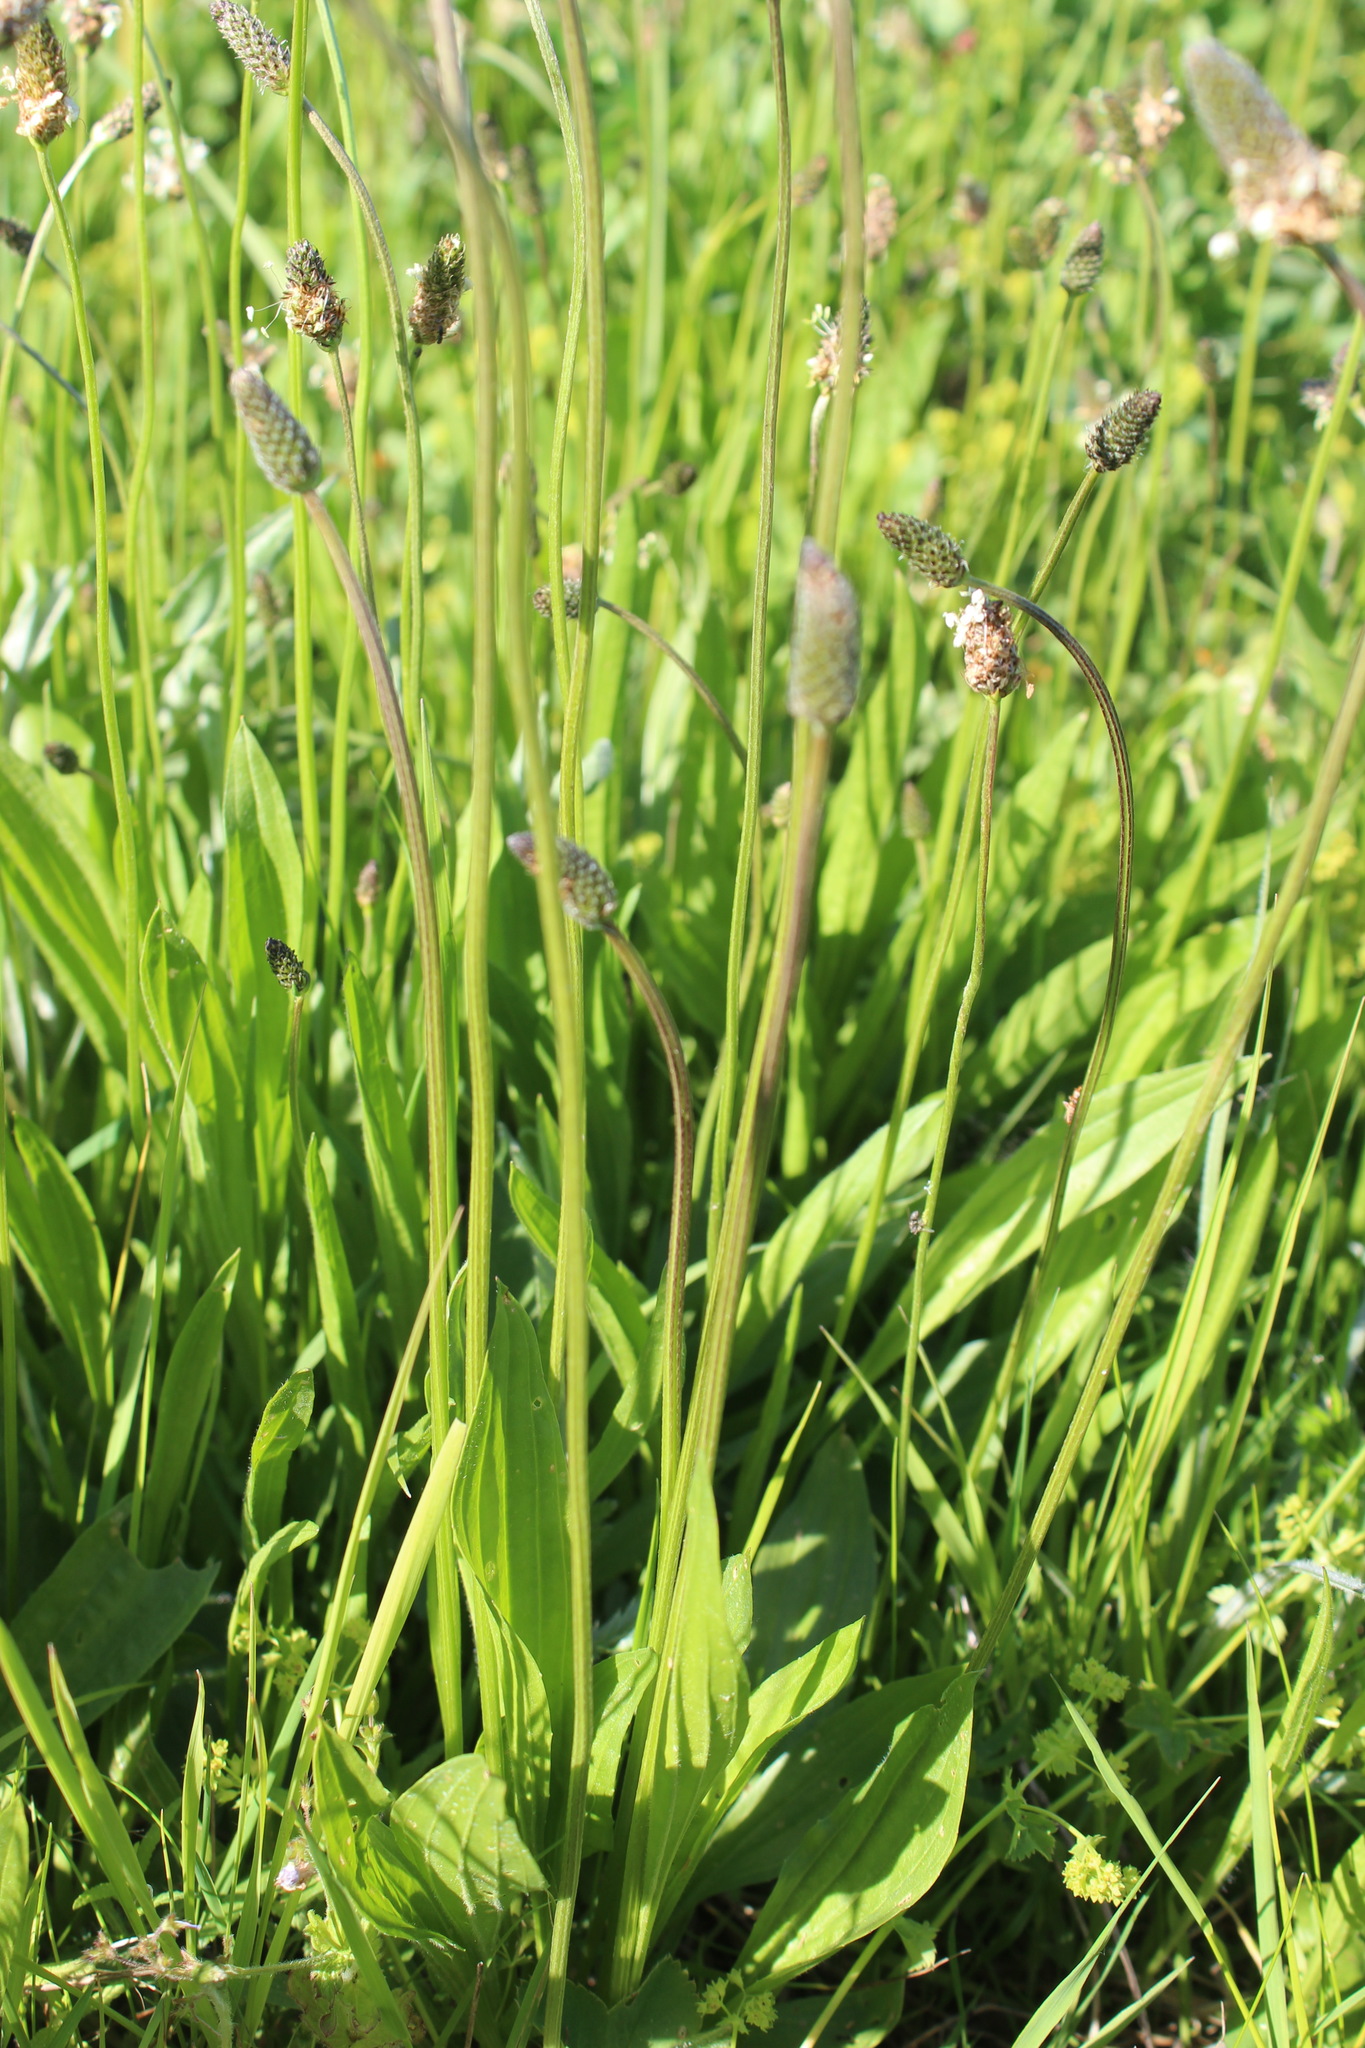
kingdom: Plantae
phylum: Tracheophyta
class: Magnoliopsida
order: Lamiales
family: Plantaginaceae
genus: Plantago
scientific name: Plantago lanceolata
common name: Ribwort plantain
